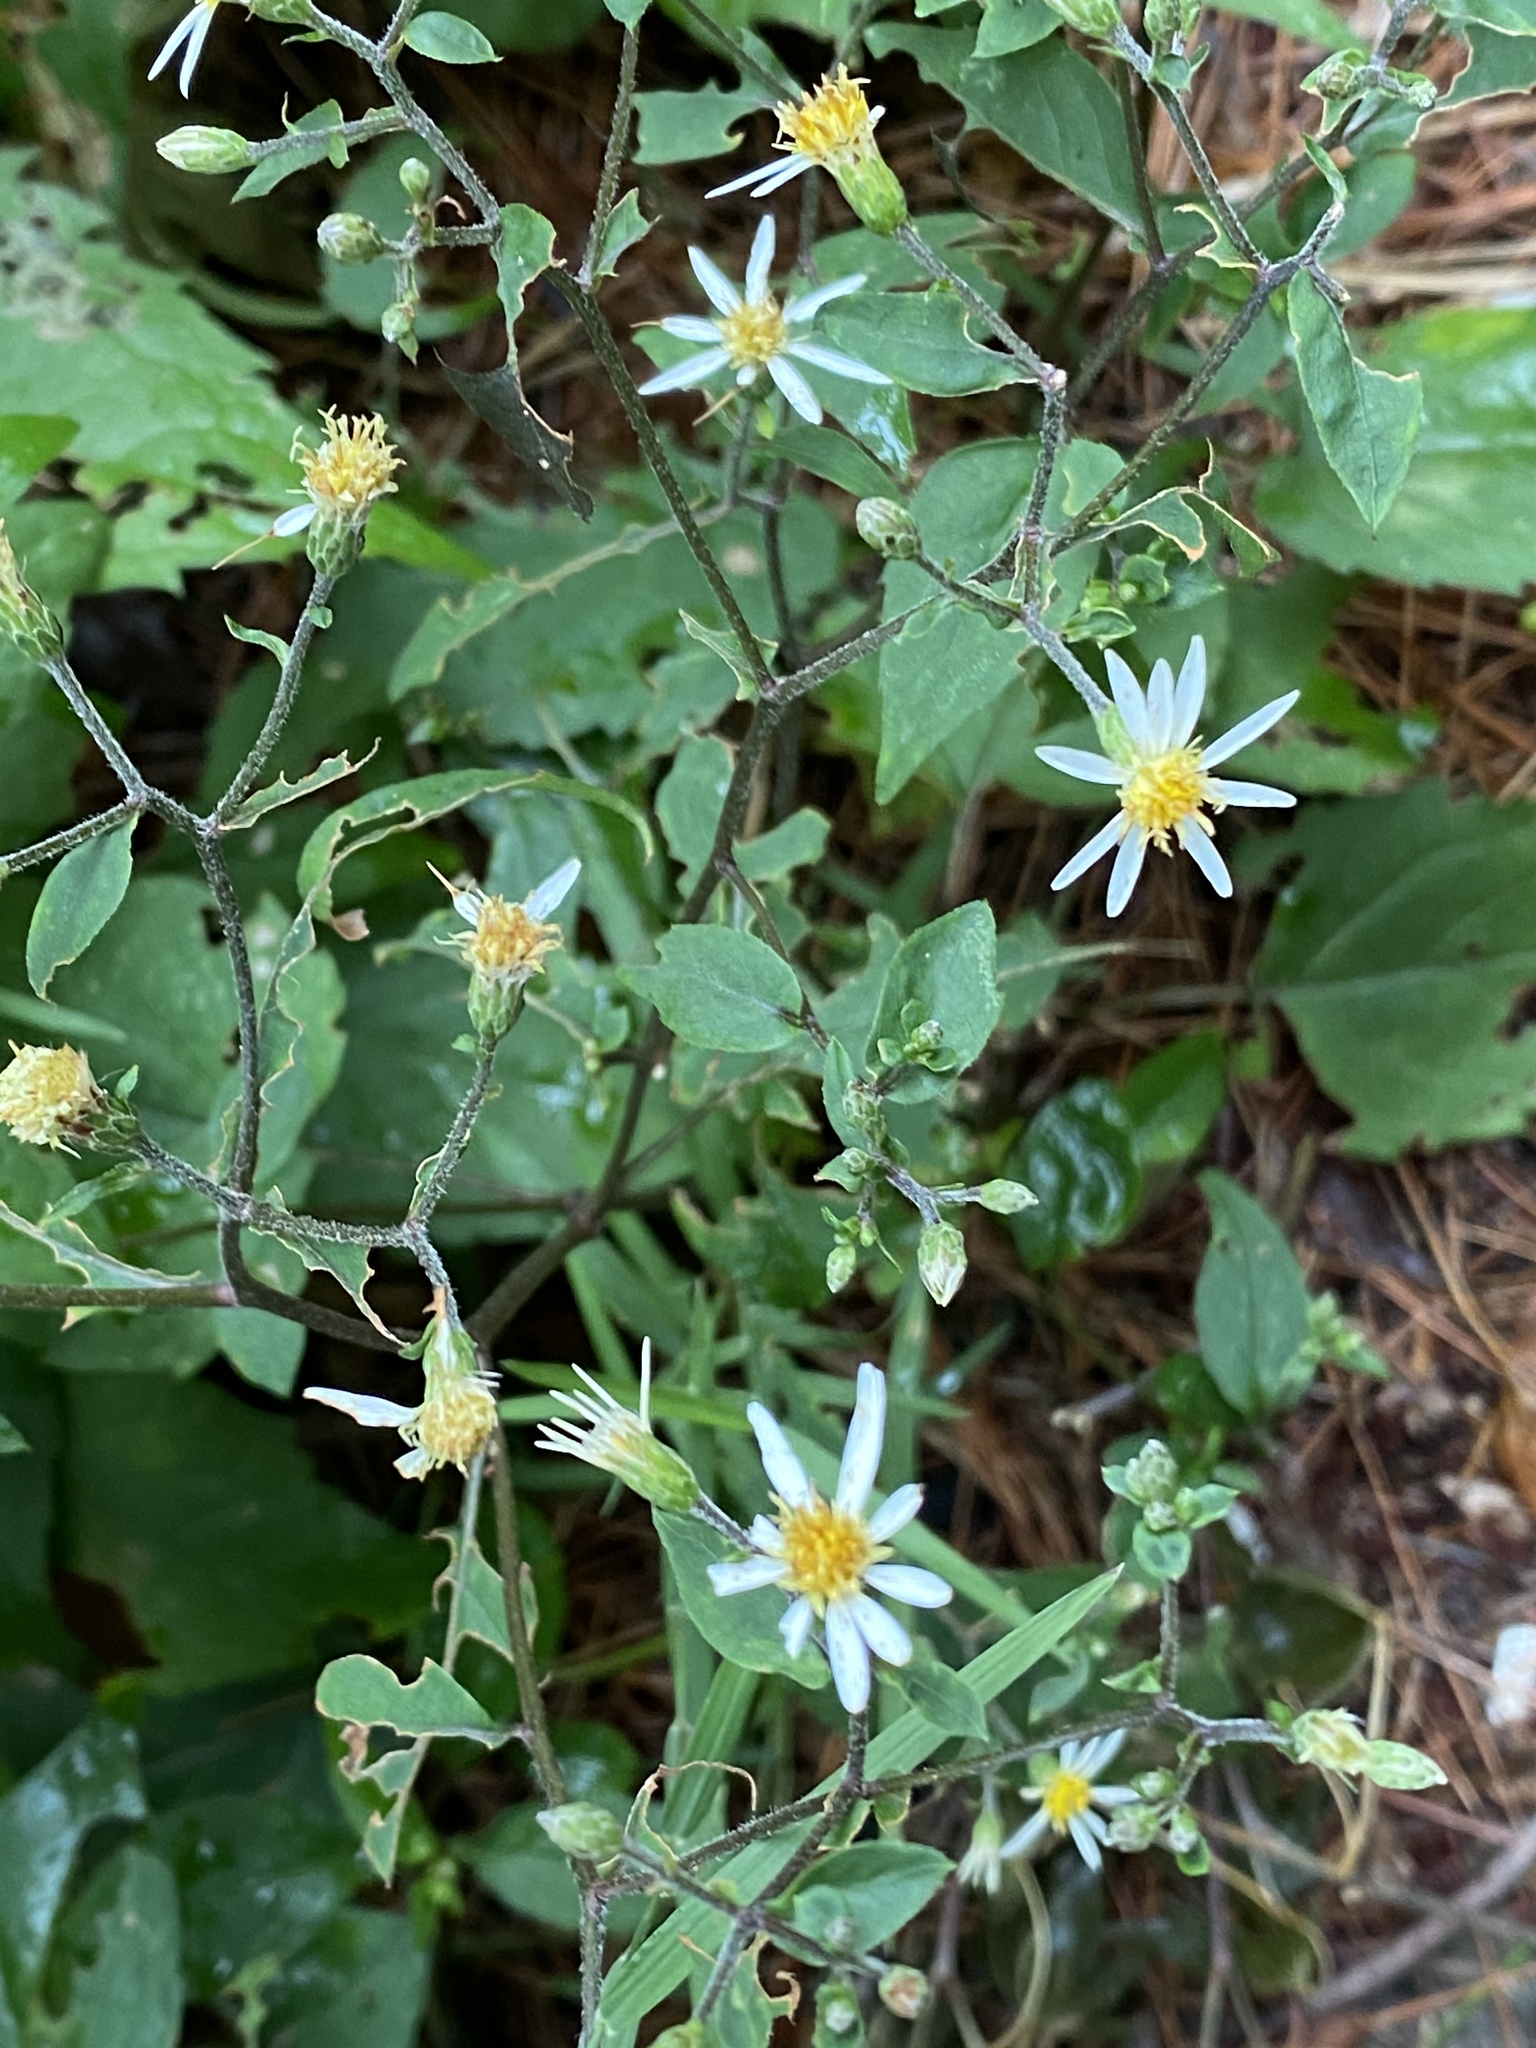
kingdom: Plantae
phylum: Tracheophyta
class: Magnoliopsida
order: Asterales
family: Asteraceae
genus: Eurybia
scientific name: Eurybia divaricata
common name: White wood aster
